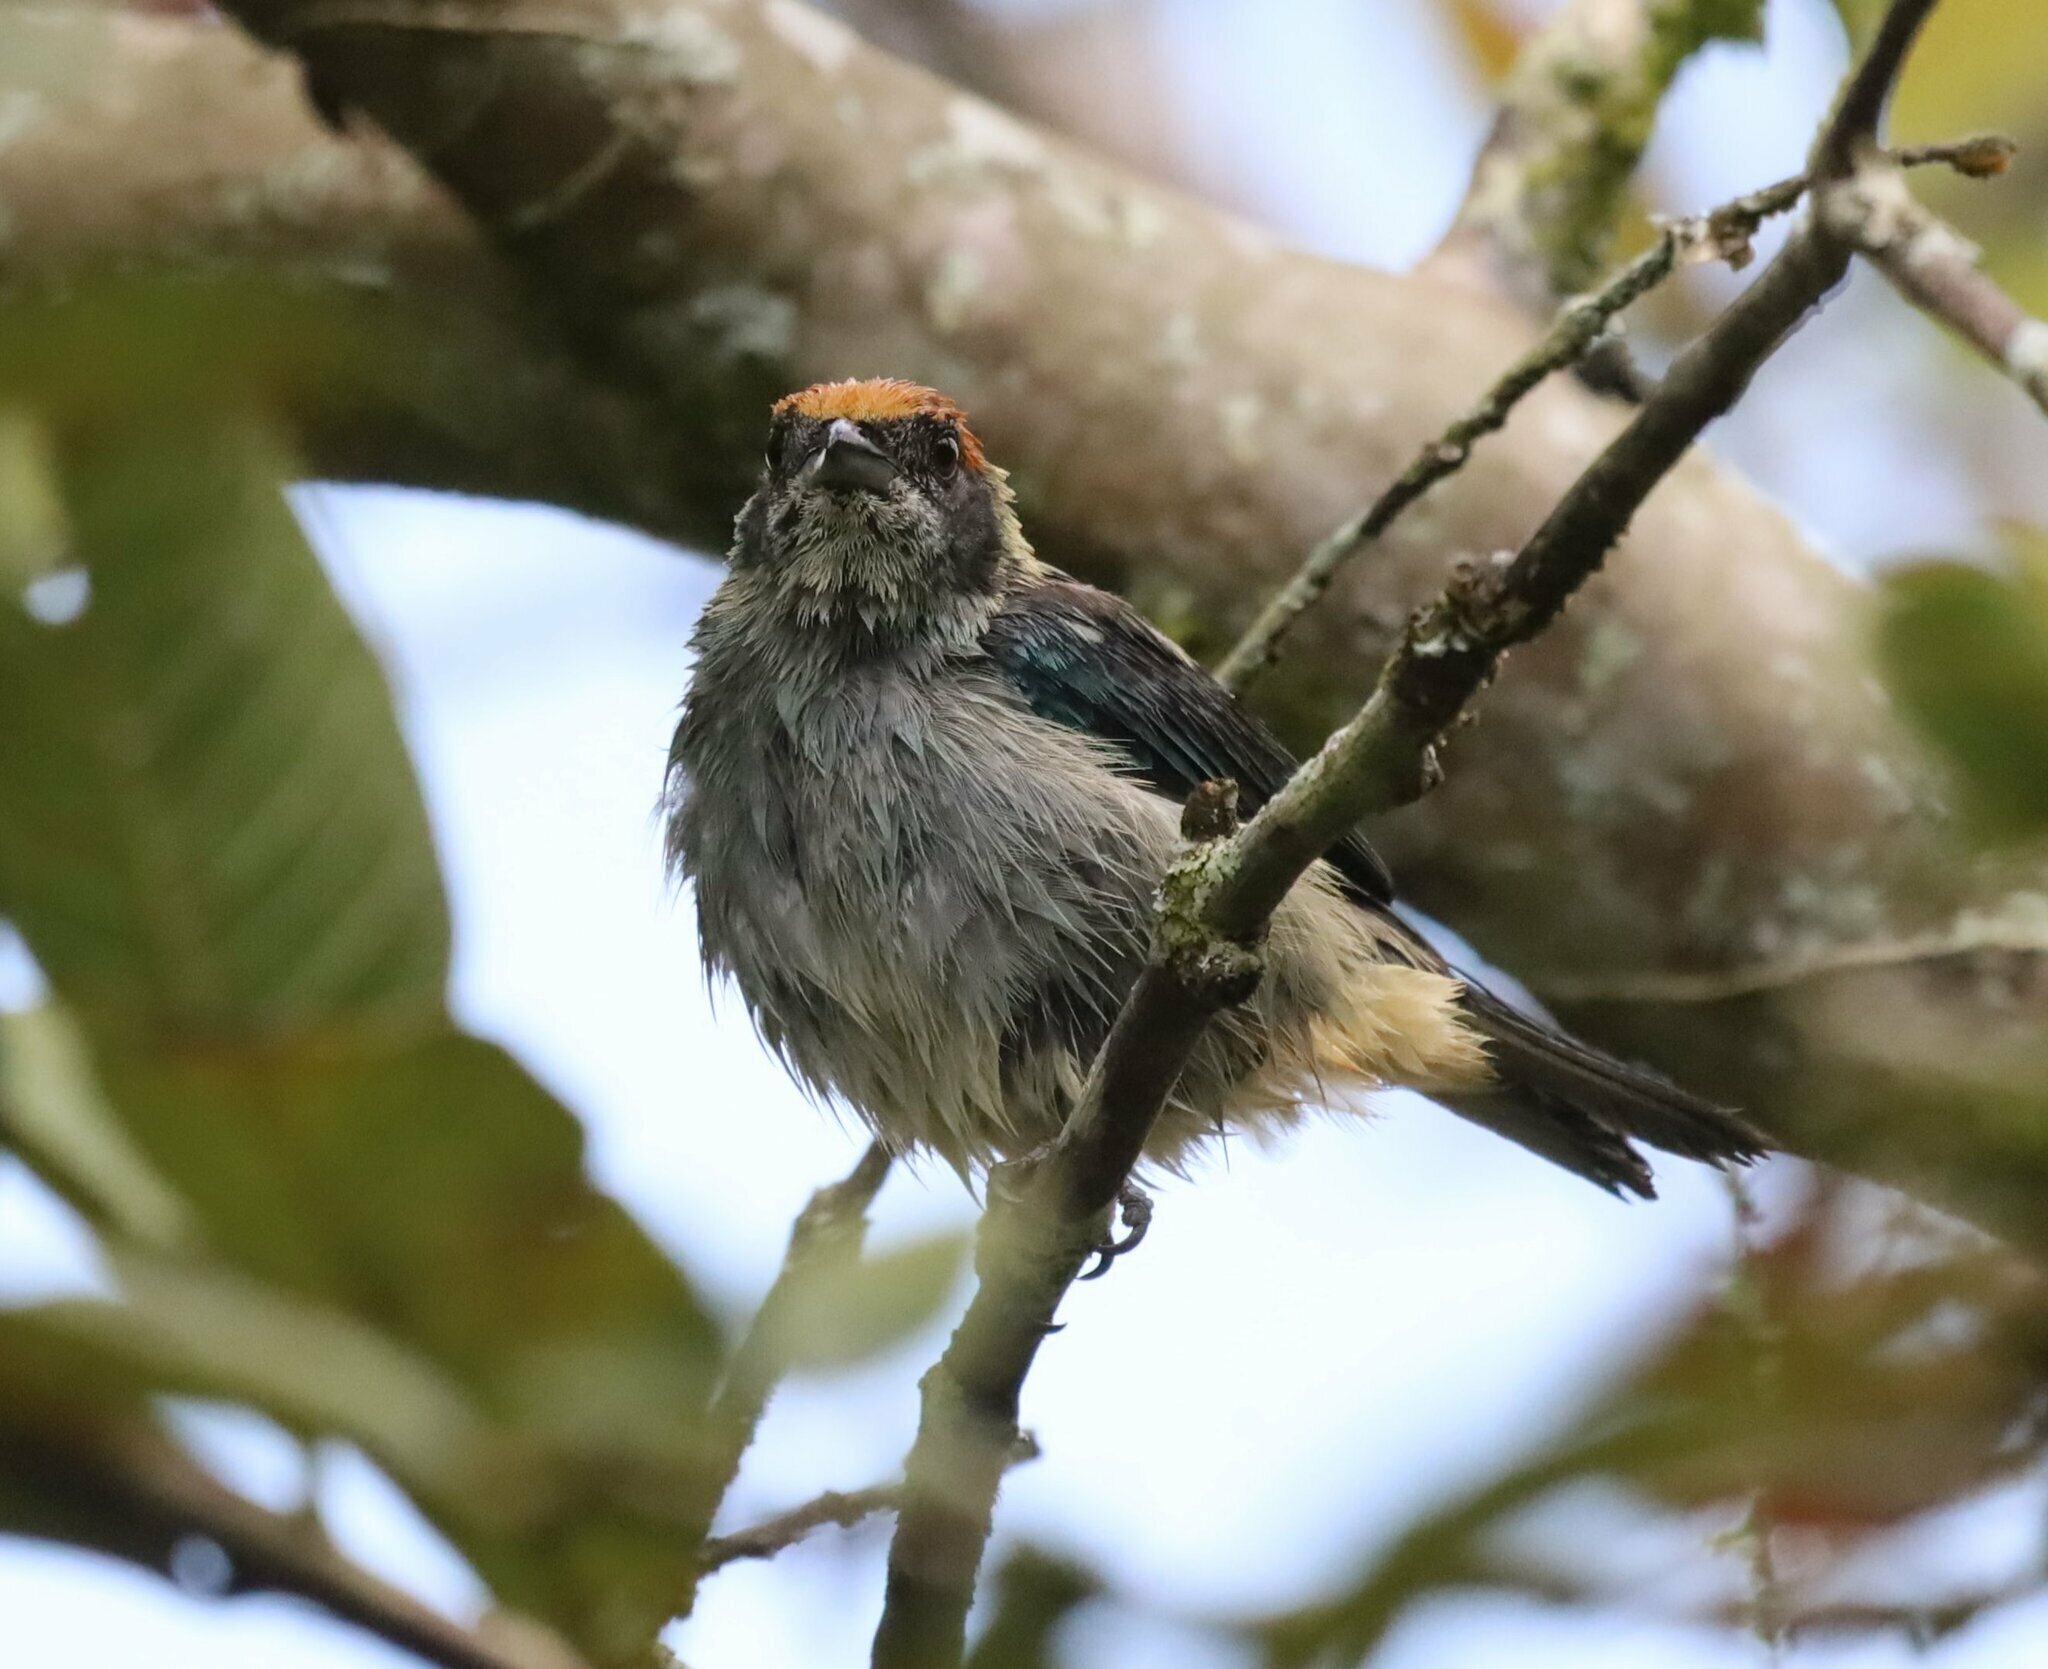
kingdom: Animalia
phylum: Chordata
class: Aves
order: Passeriformes
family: Thraupidae
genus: Stilpnia
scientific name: Stilpnia vitriolina
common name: Scrub tanager
